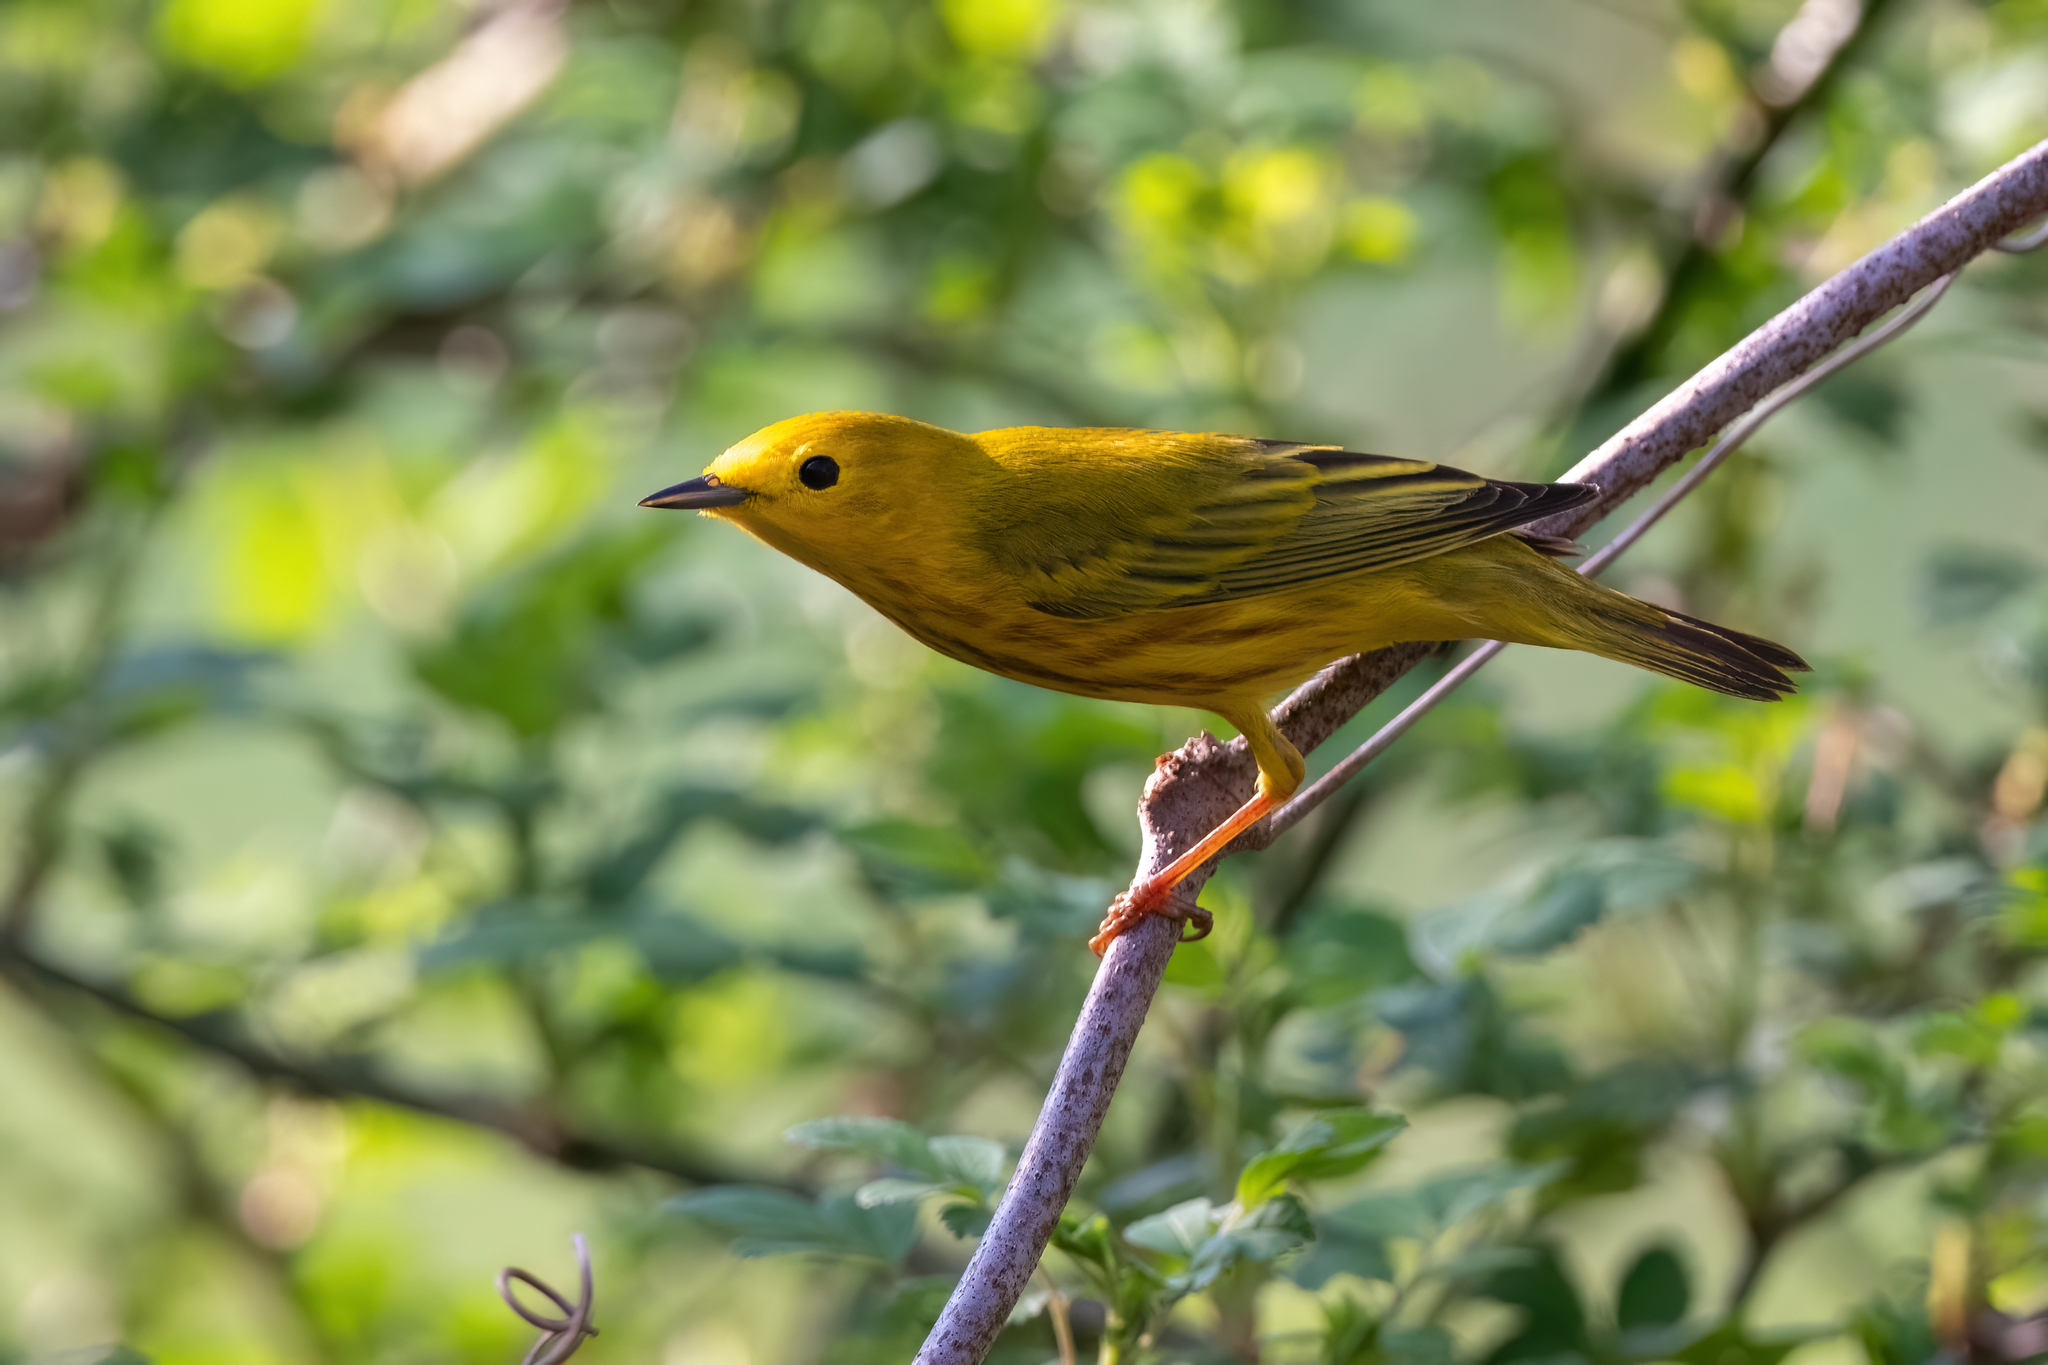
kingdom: Animalia
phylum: Chordata
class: Aves
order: Passeriformes
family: Parulidae
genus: Setophaga
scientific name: Setophaga petechia
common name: Yellow warbler
